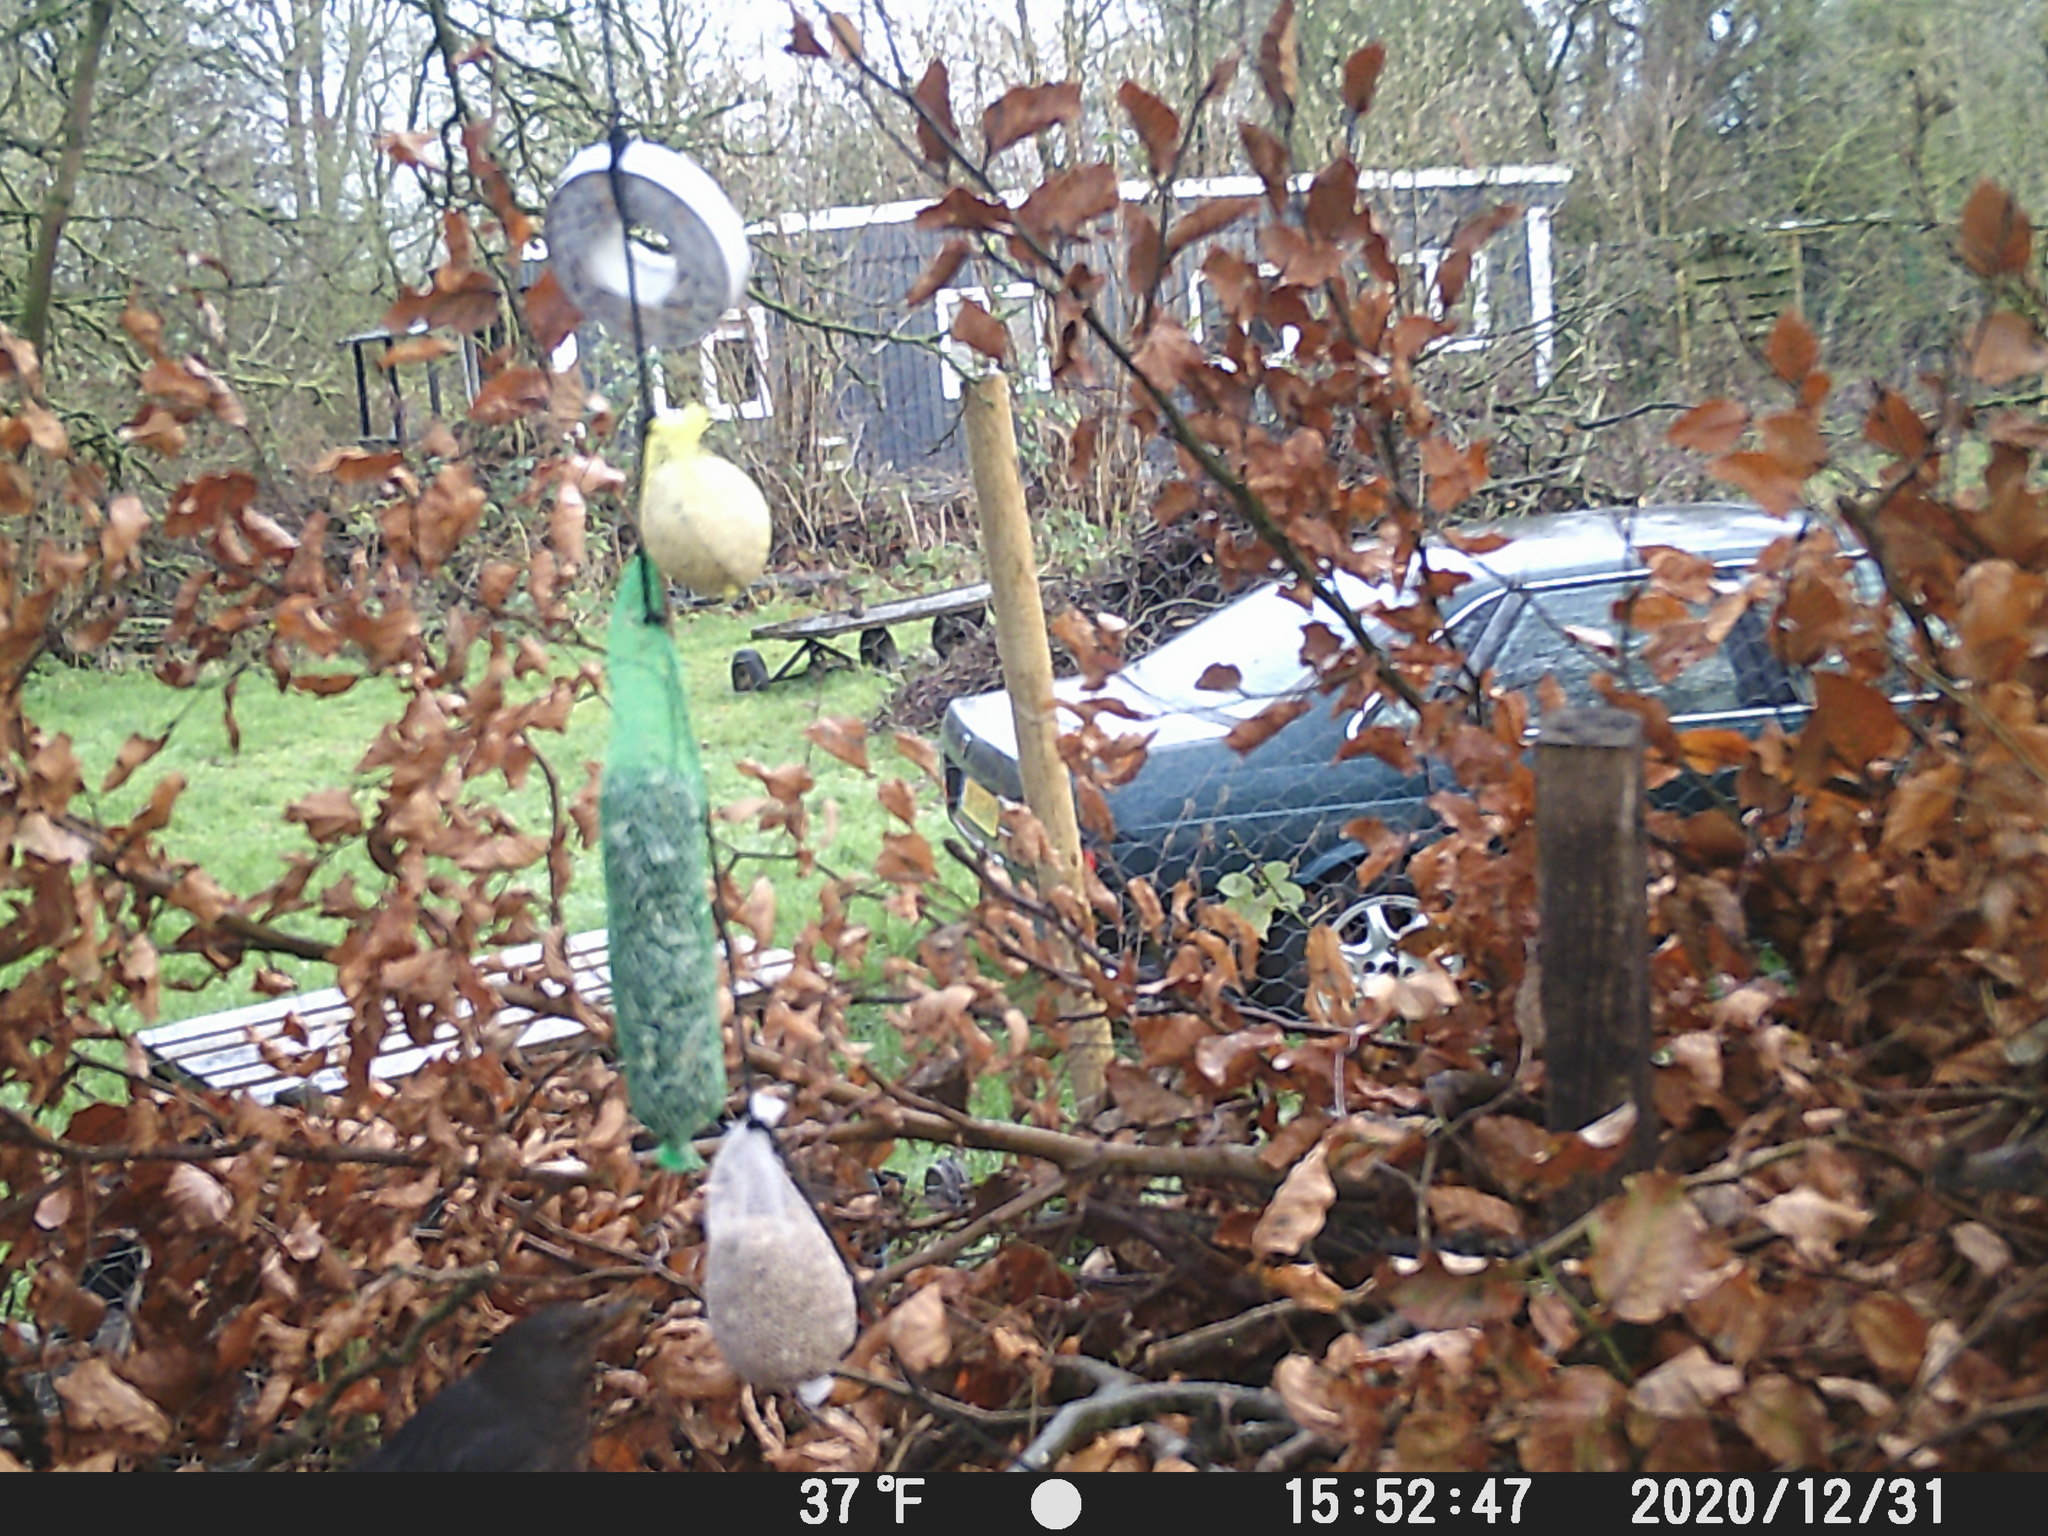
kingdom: Animalia
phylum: Chordata
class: Aves
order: Passeriformes
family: Turdidae
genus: Turdus
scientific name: Turdus merula
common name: Common blackbird
